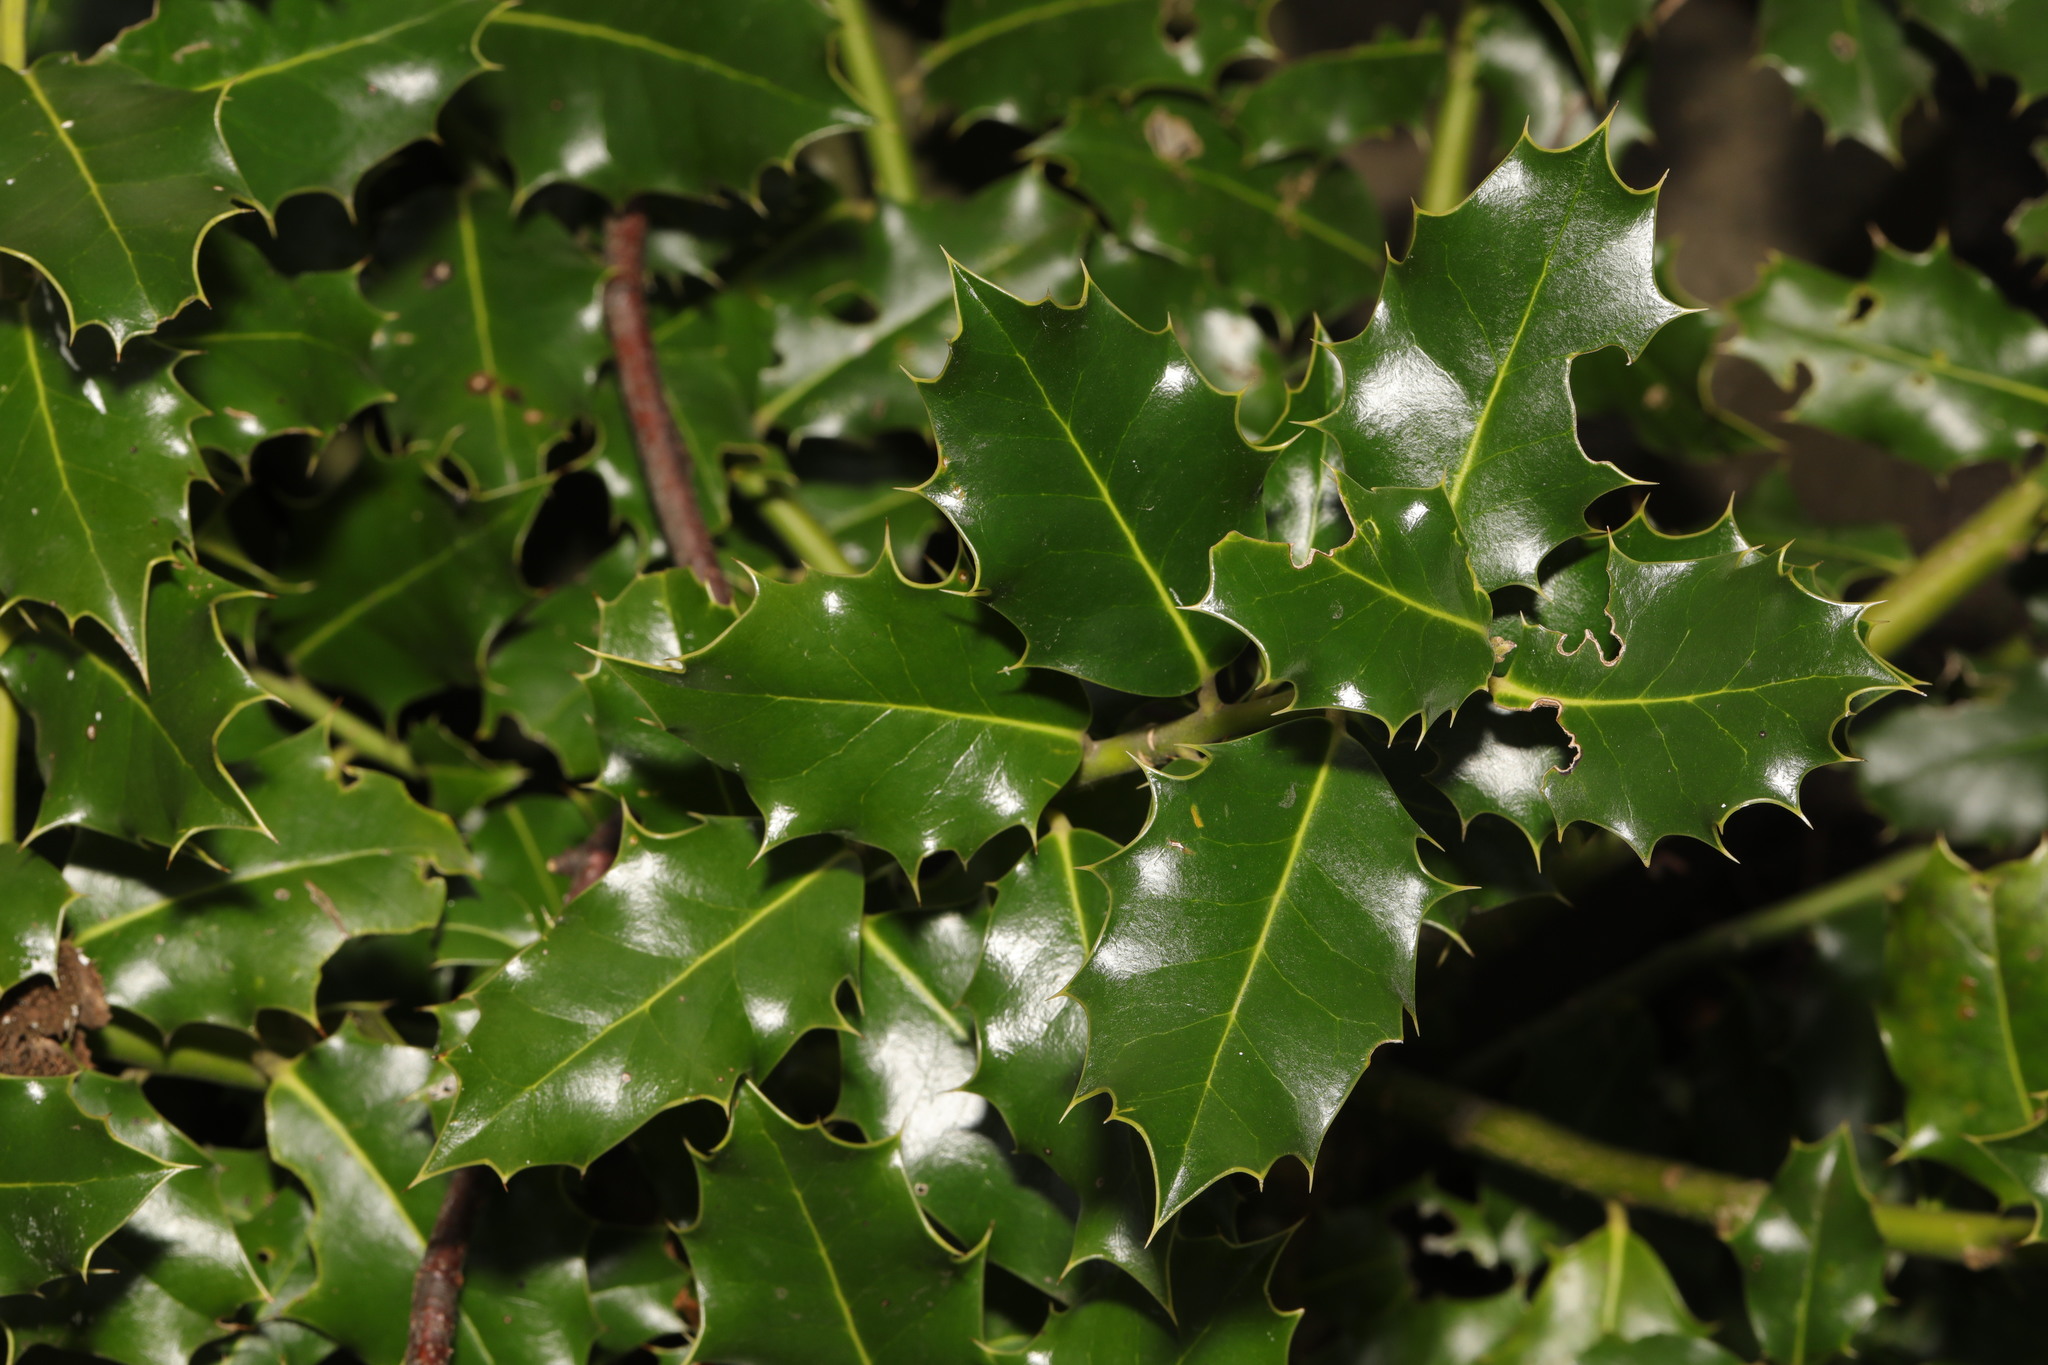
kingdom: Plantae
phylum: Tracheophyta
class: Magnoliopsida
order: Aquifoliales
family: Aquifoliaceae
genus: Ilex
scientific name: Ilex aquifolium
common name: English holly
